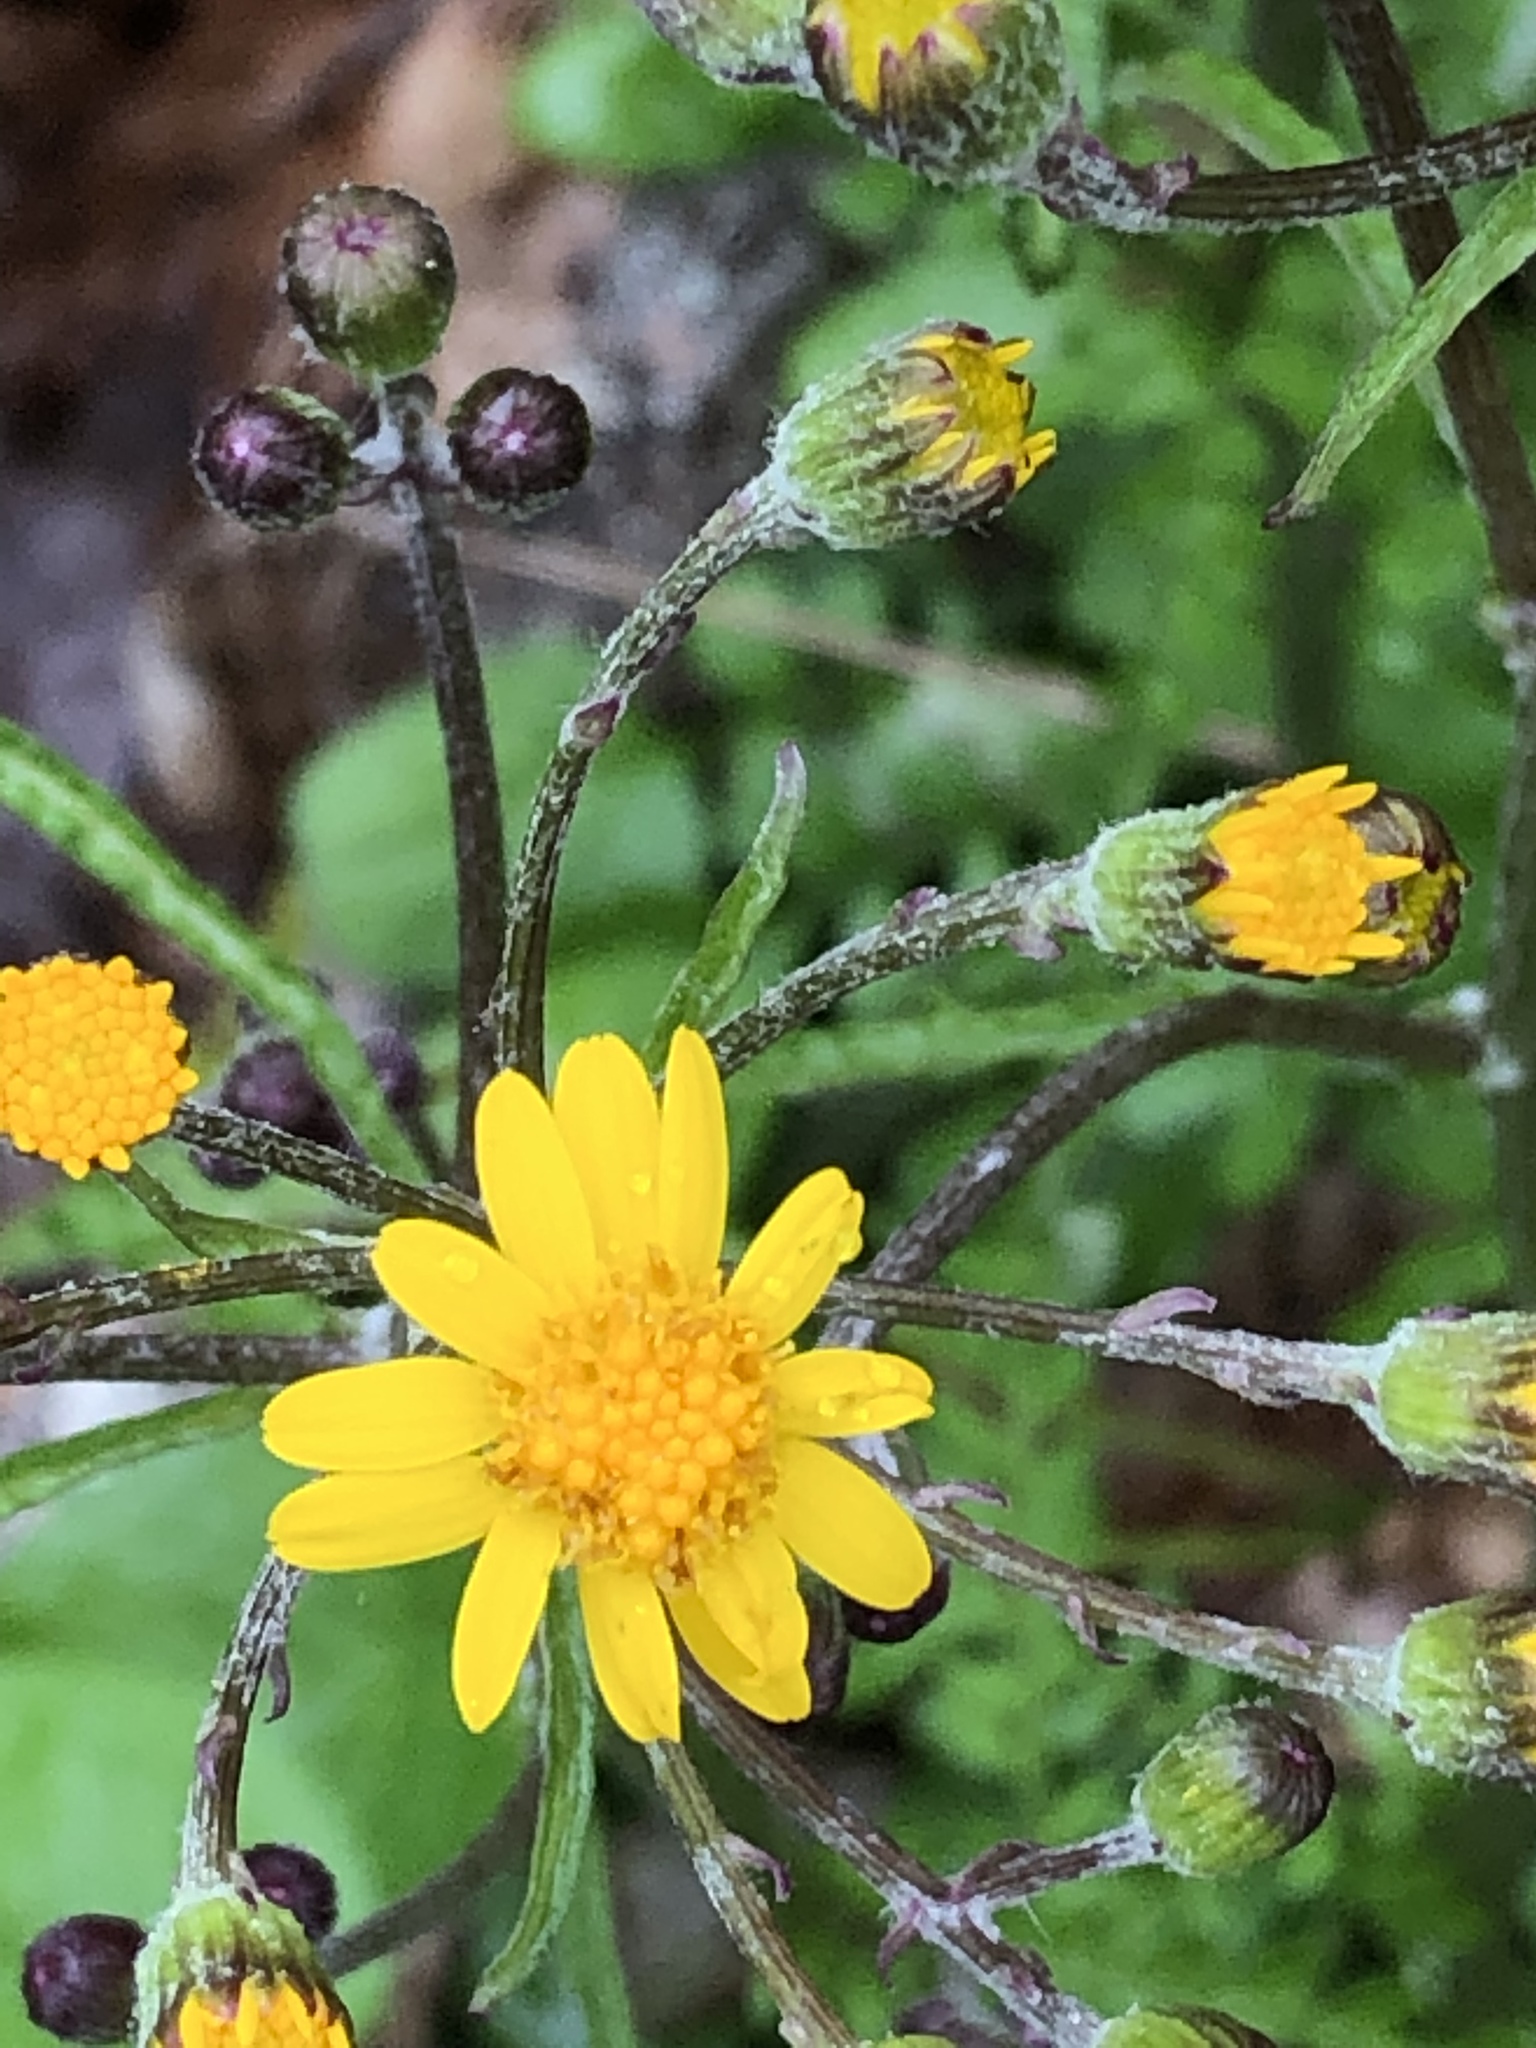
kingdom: Plantae
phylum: Tracheophyta
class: Magnoliopsida
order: Asterales
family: Asteraceae
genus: Packera
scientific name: Packera aurea
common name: Golden groundsel
